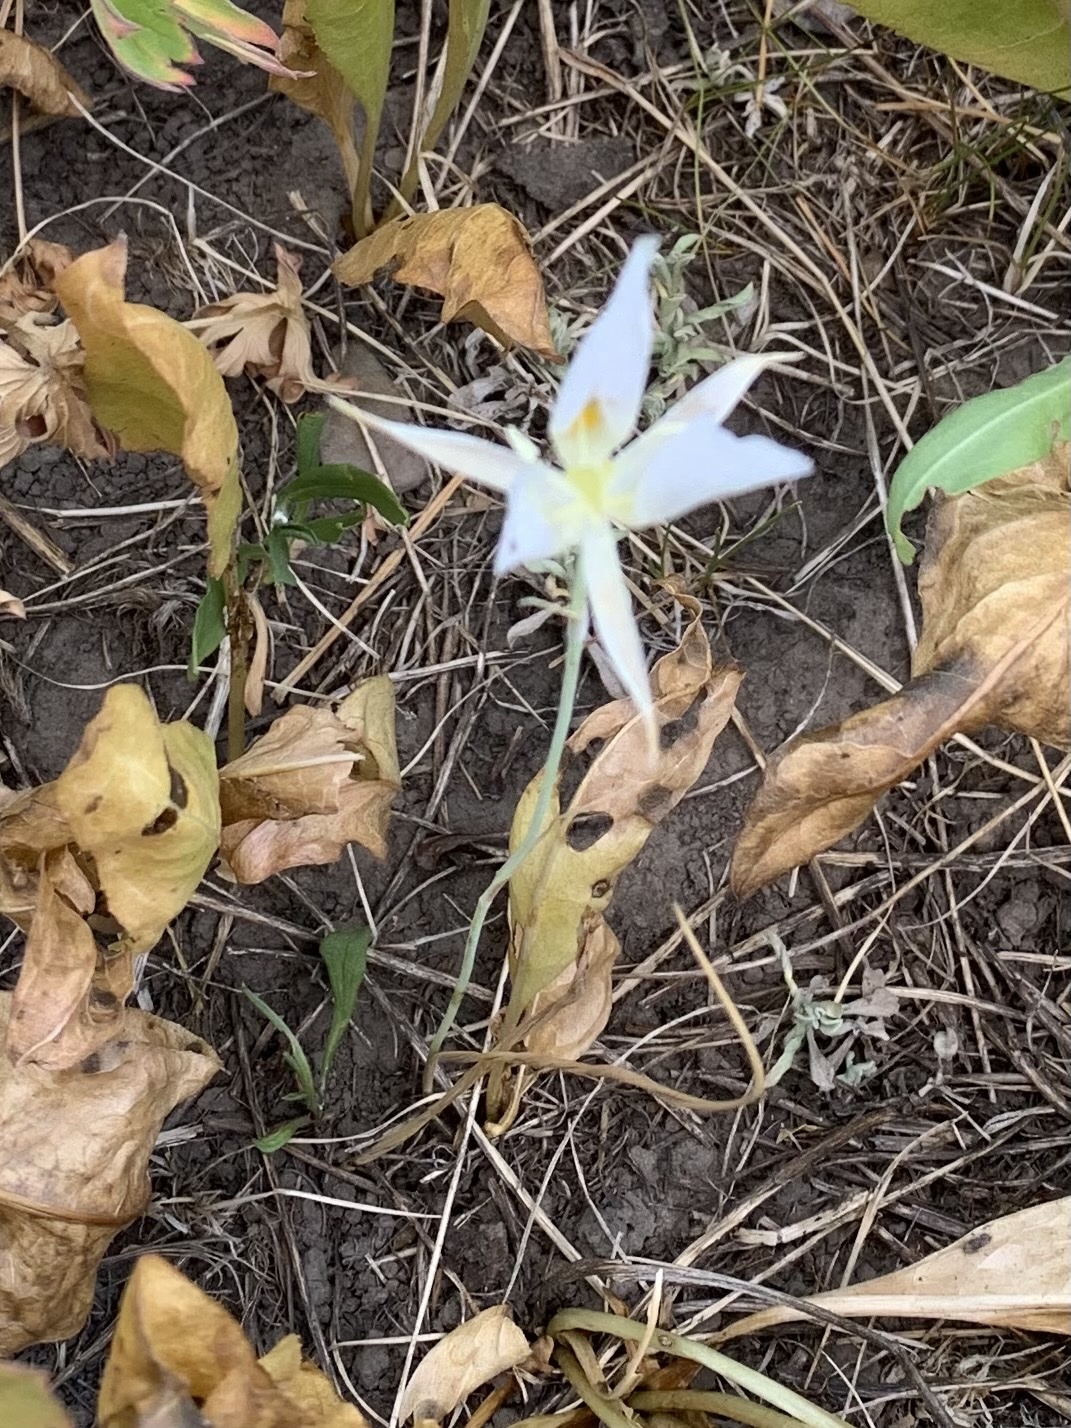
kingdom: Plantae
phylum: Tracheophyta
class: Liliopsida
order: Liliales
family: Liliaceae
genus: Calochortus
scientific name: Calochortus eurycarpus
